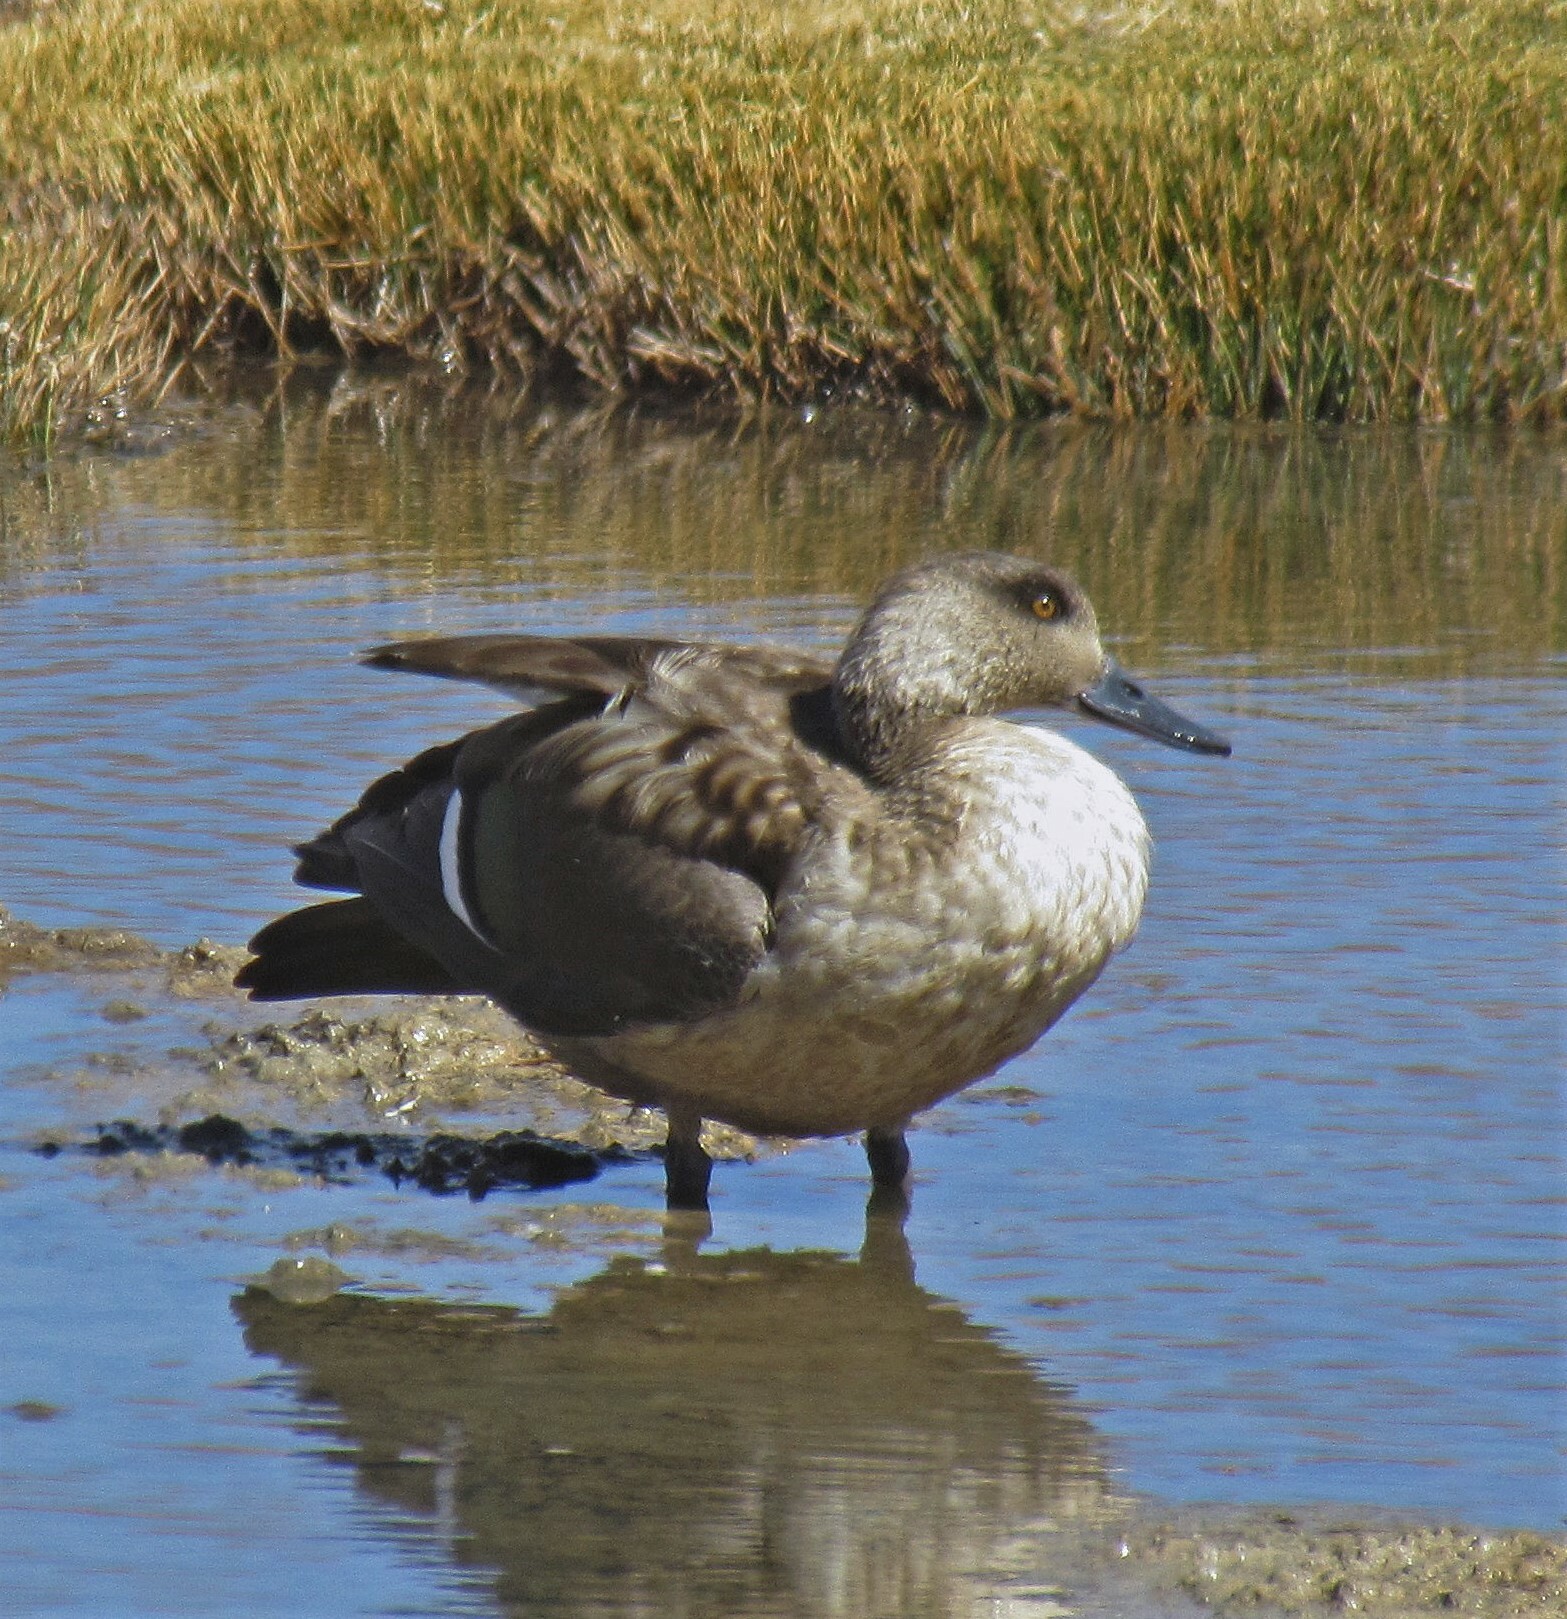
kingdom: Animalia
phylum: Chordata
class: Aves
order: Anseriformes
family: Anatidae
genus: Lophonetta
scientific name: Lophonetta specularioides
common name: Crested duck
